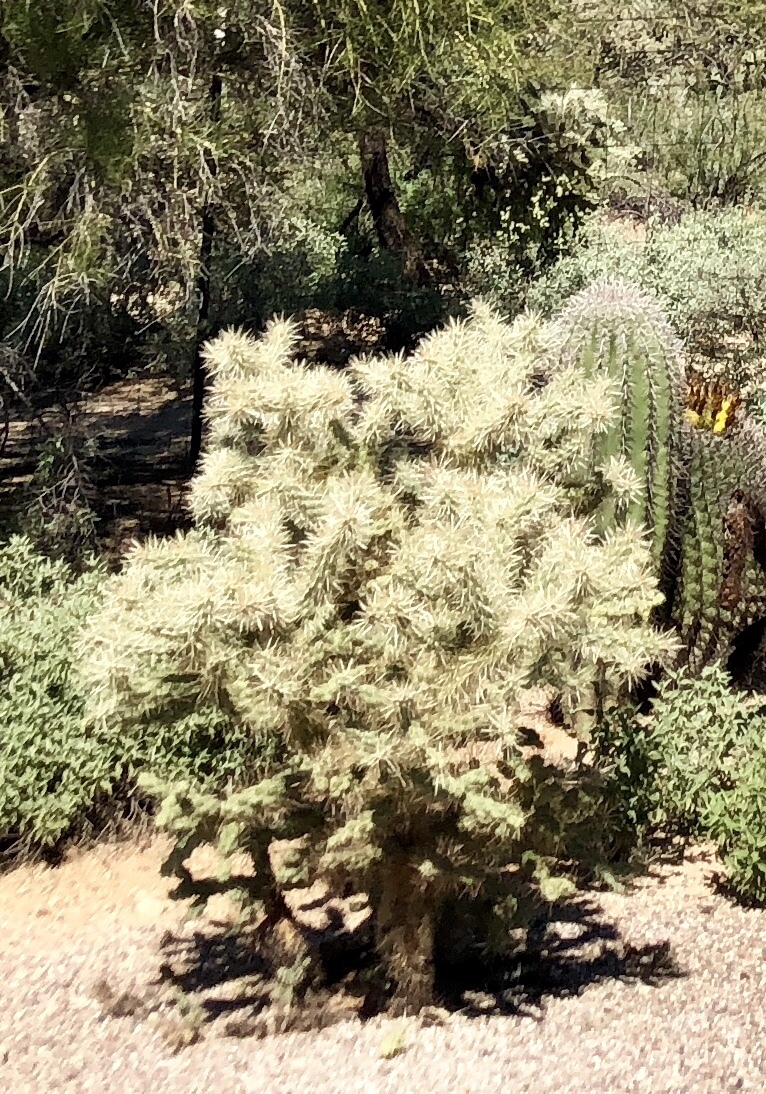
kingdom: Plantae
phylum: Tracheophyta
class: Magnoliopsida
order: Caryophyllales
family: Cactaceae
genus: Cylindropuntia
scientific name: Cylindropuntia fulgida
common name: Jumping cholla
